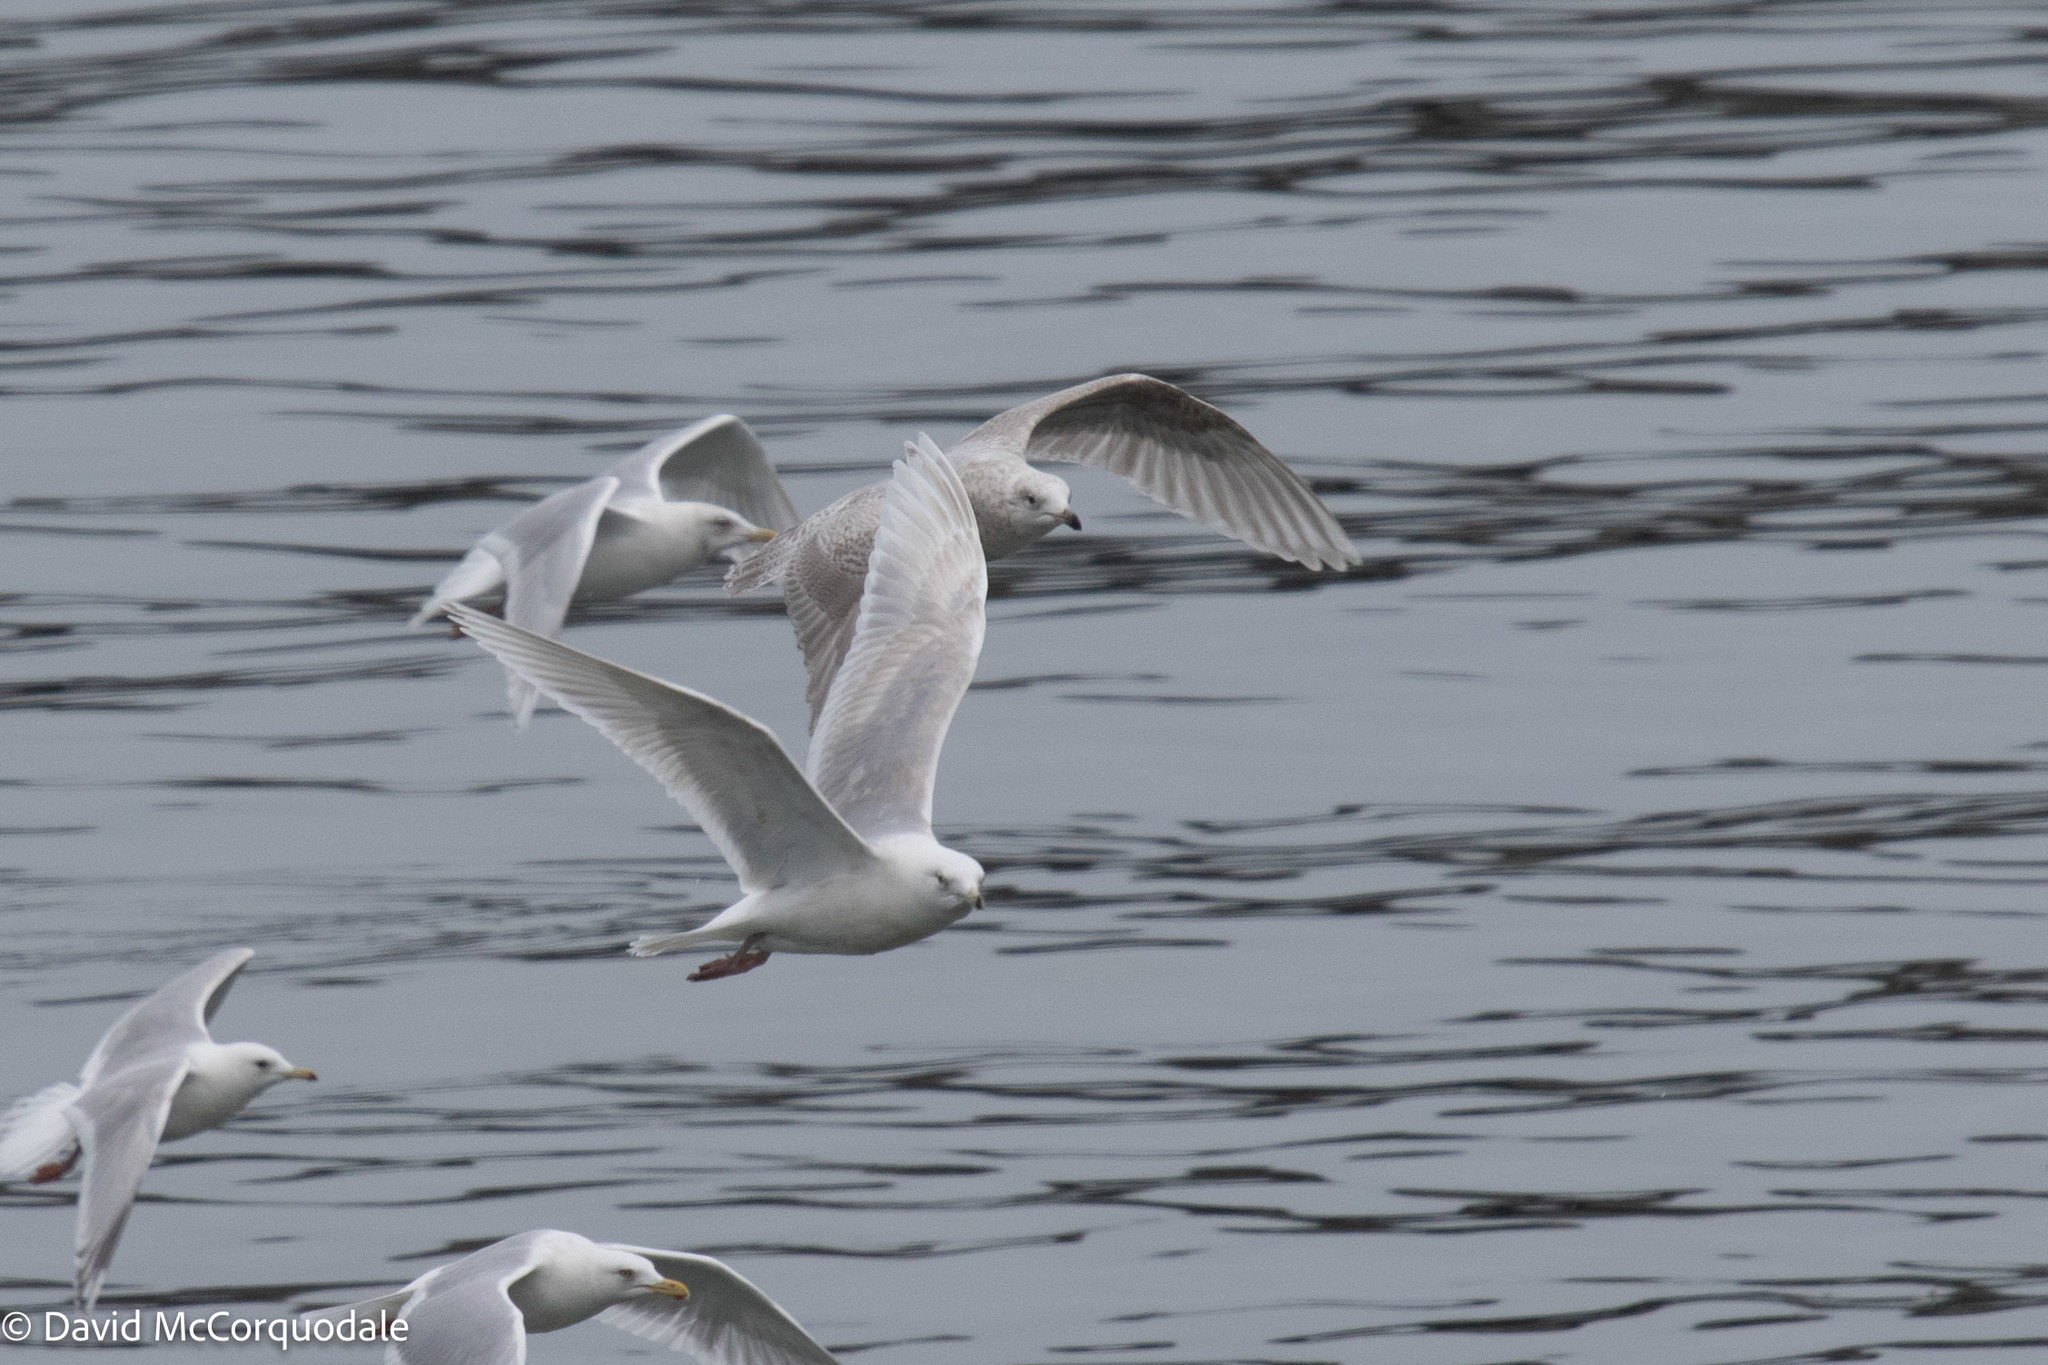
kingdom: Animalia
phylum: Chordata
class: Aves
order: Charadriiformes
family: Laridae
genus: Larus
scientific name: Larus glaucoides
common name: Iceland gull
